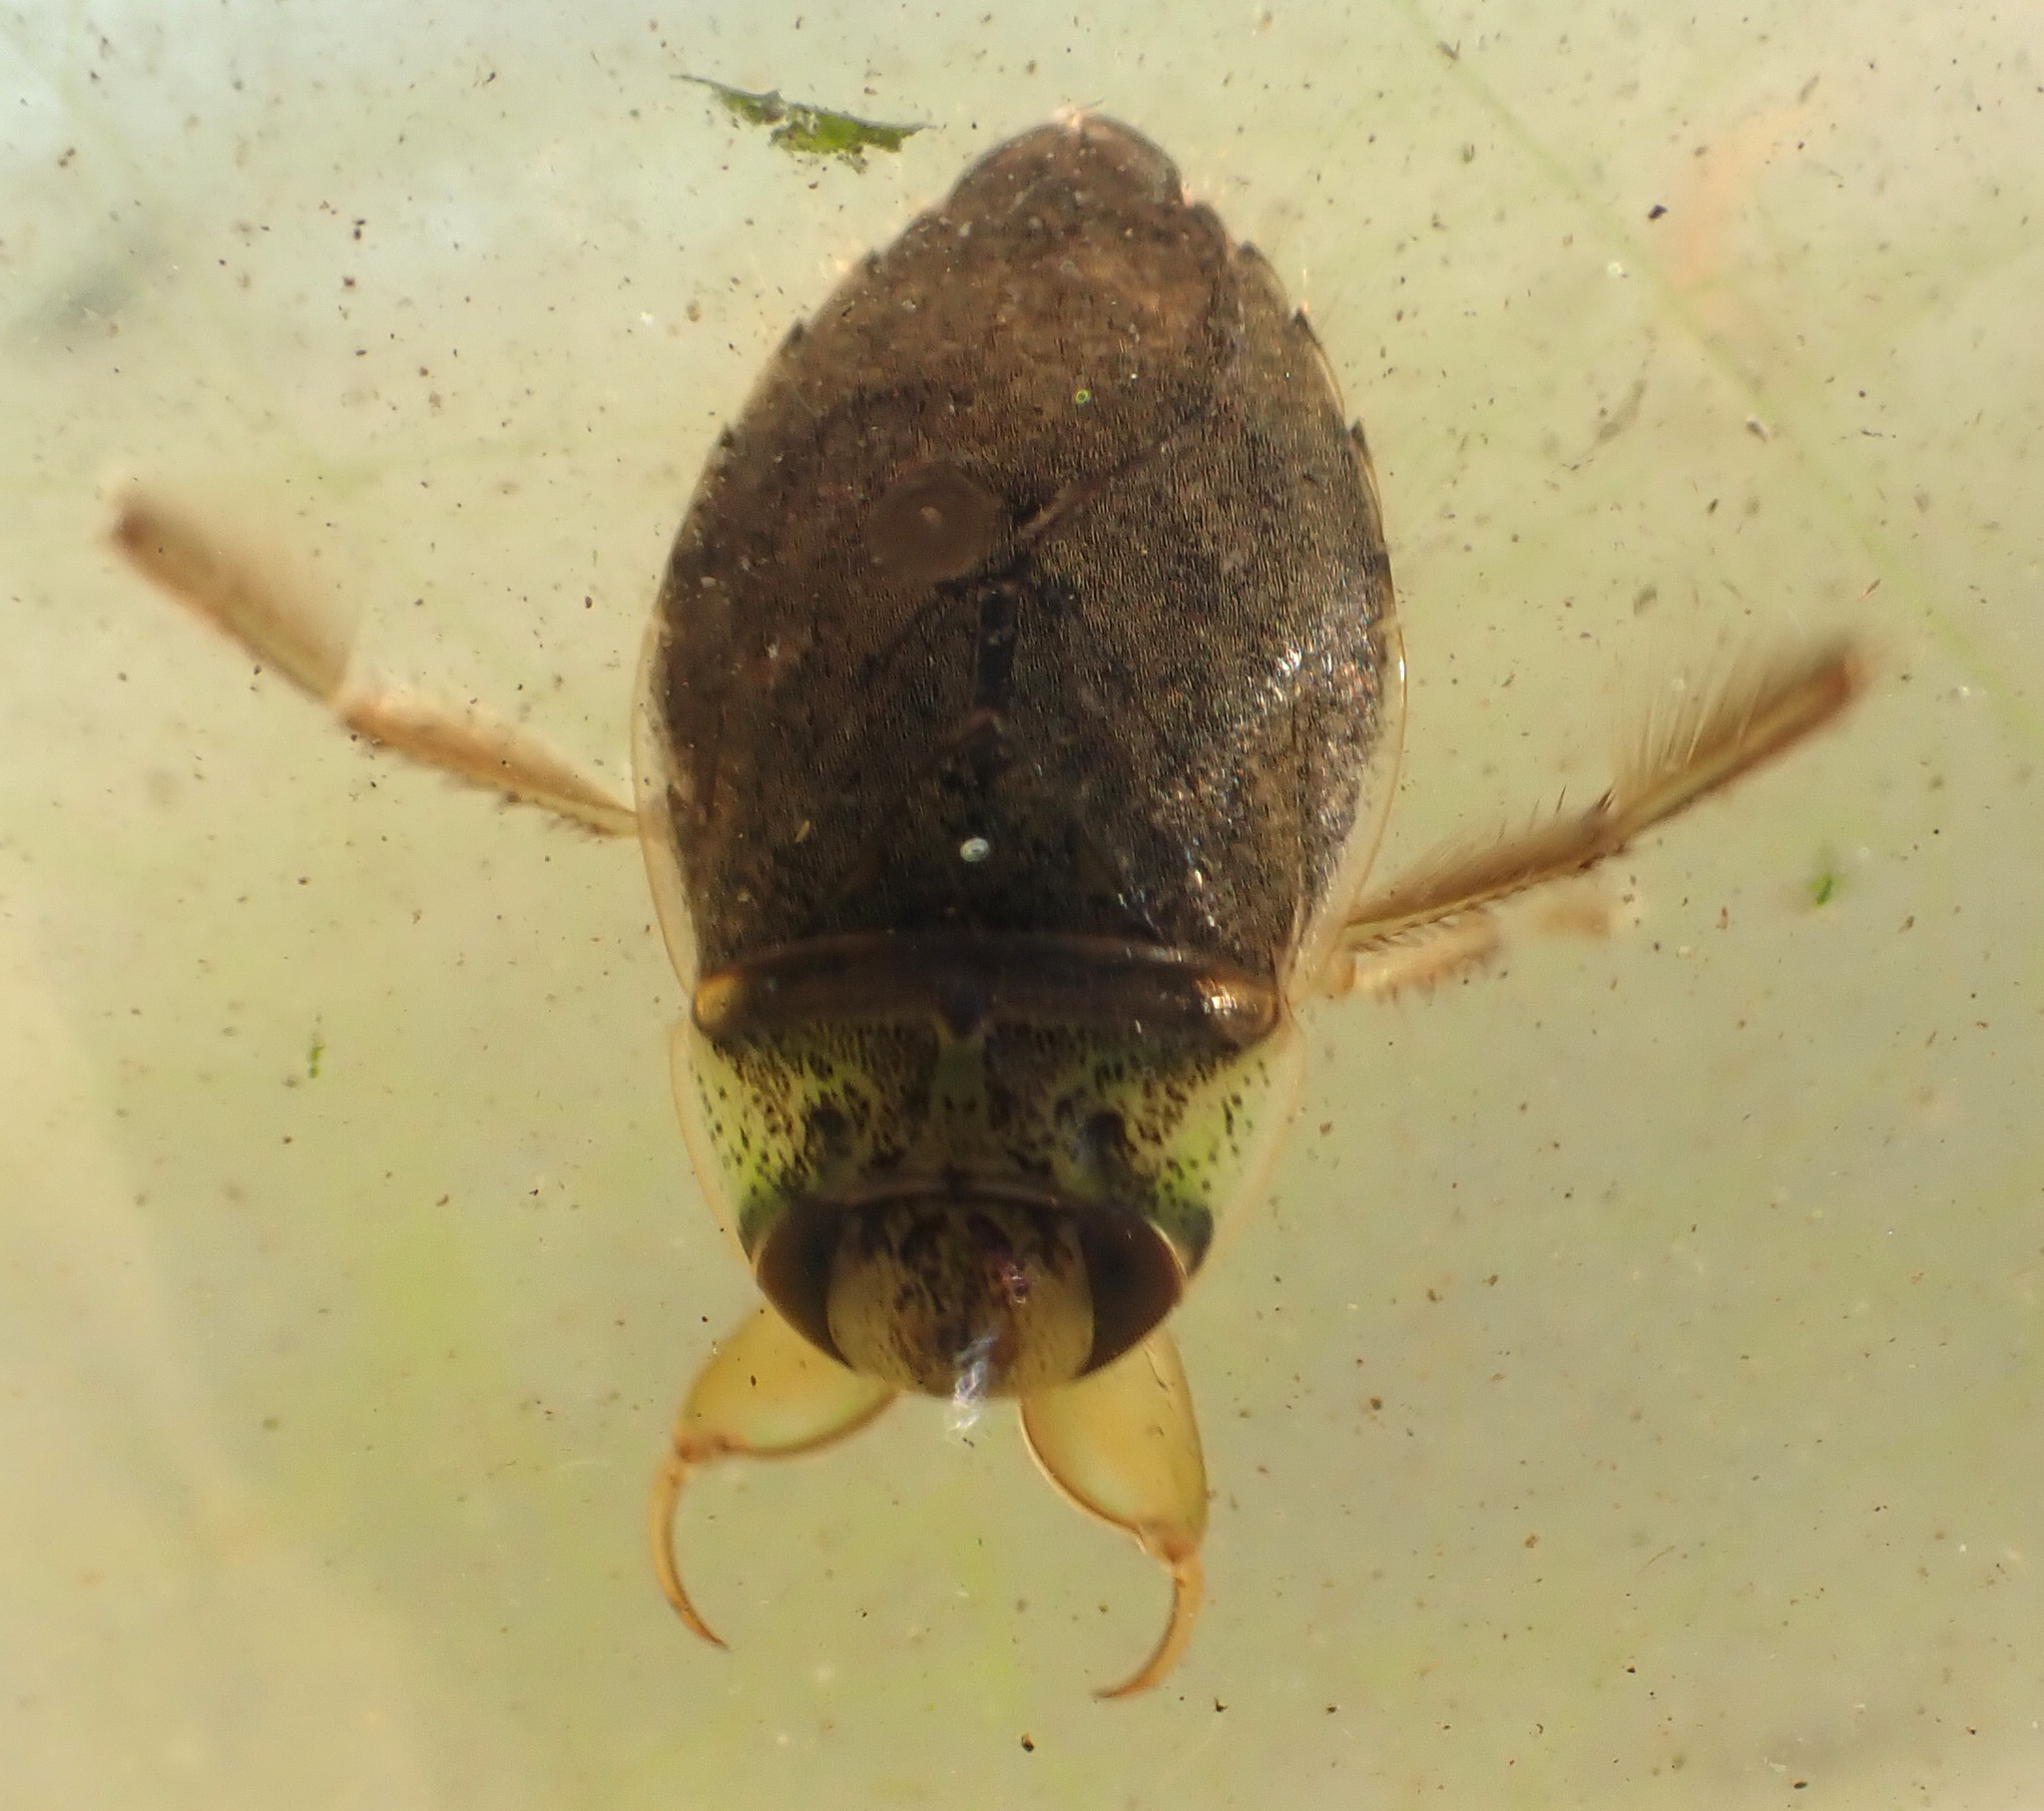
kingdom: Animalia
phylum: Arthropoda
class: Insecta
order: Hemiptera
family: Naucoridae
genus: Ilyocoris
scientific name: Ilyocoris cimicoides
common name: Saucer bugs
